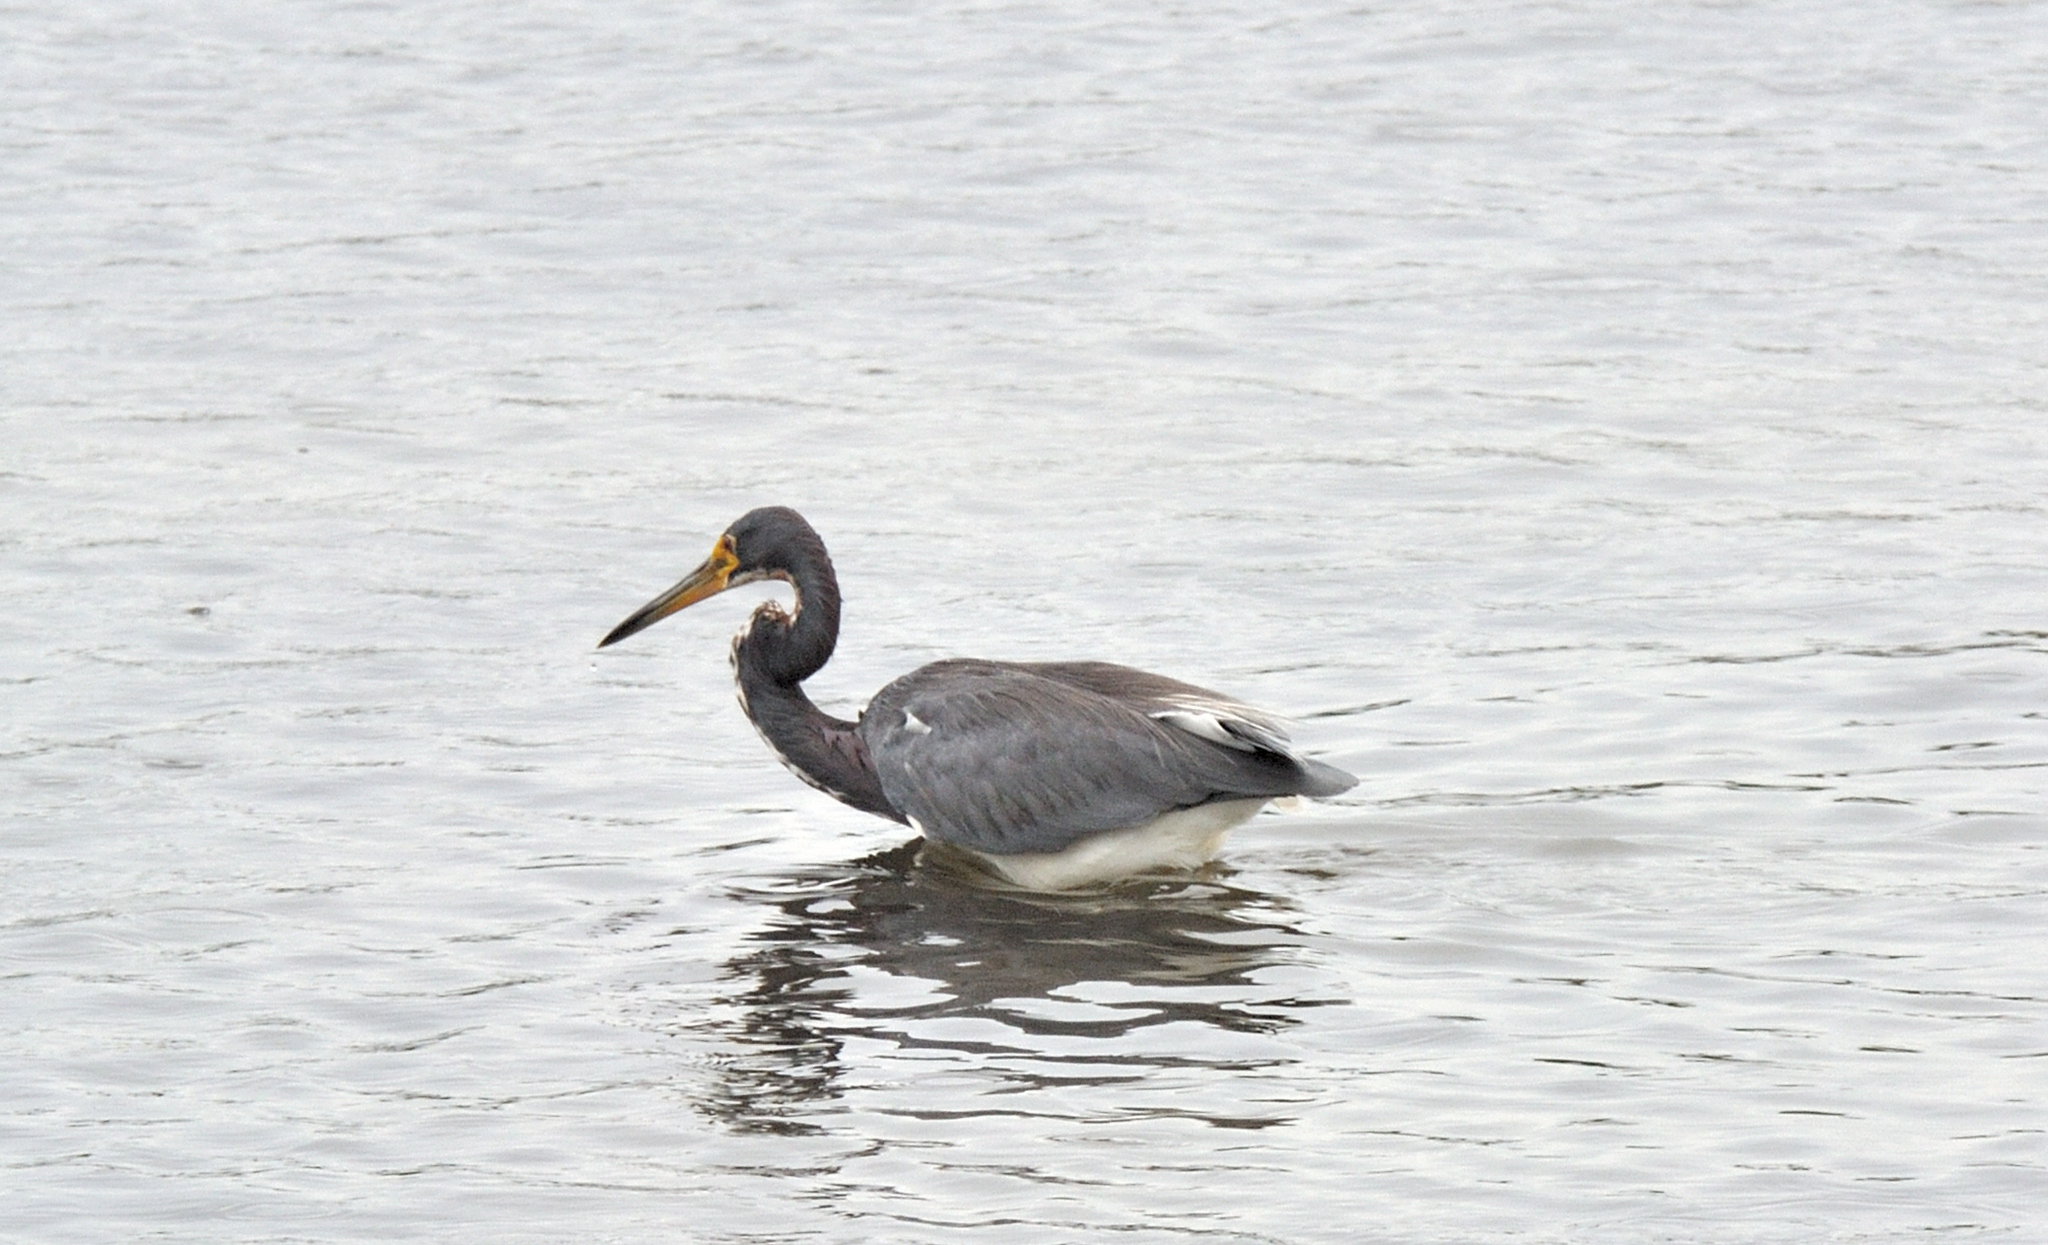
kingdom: Animalia
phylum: Chordata
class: Aves
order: Pelecaniformes
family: Ardeidae
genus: Egretta
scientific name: Egretta tricolor
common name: Tricolored heron
